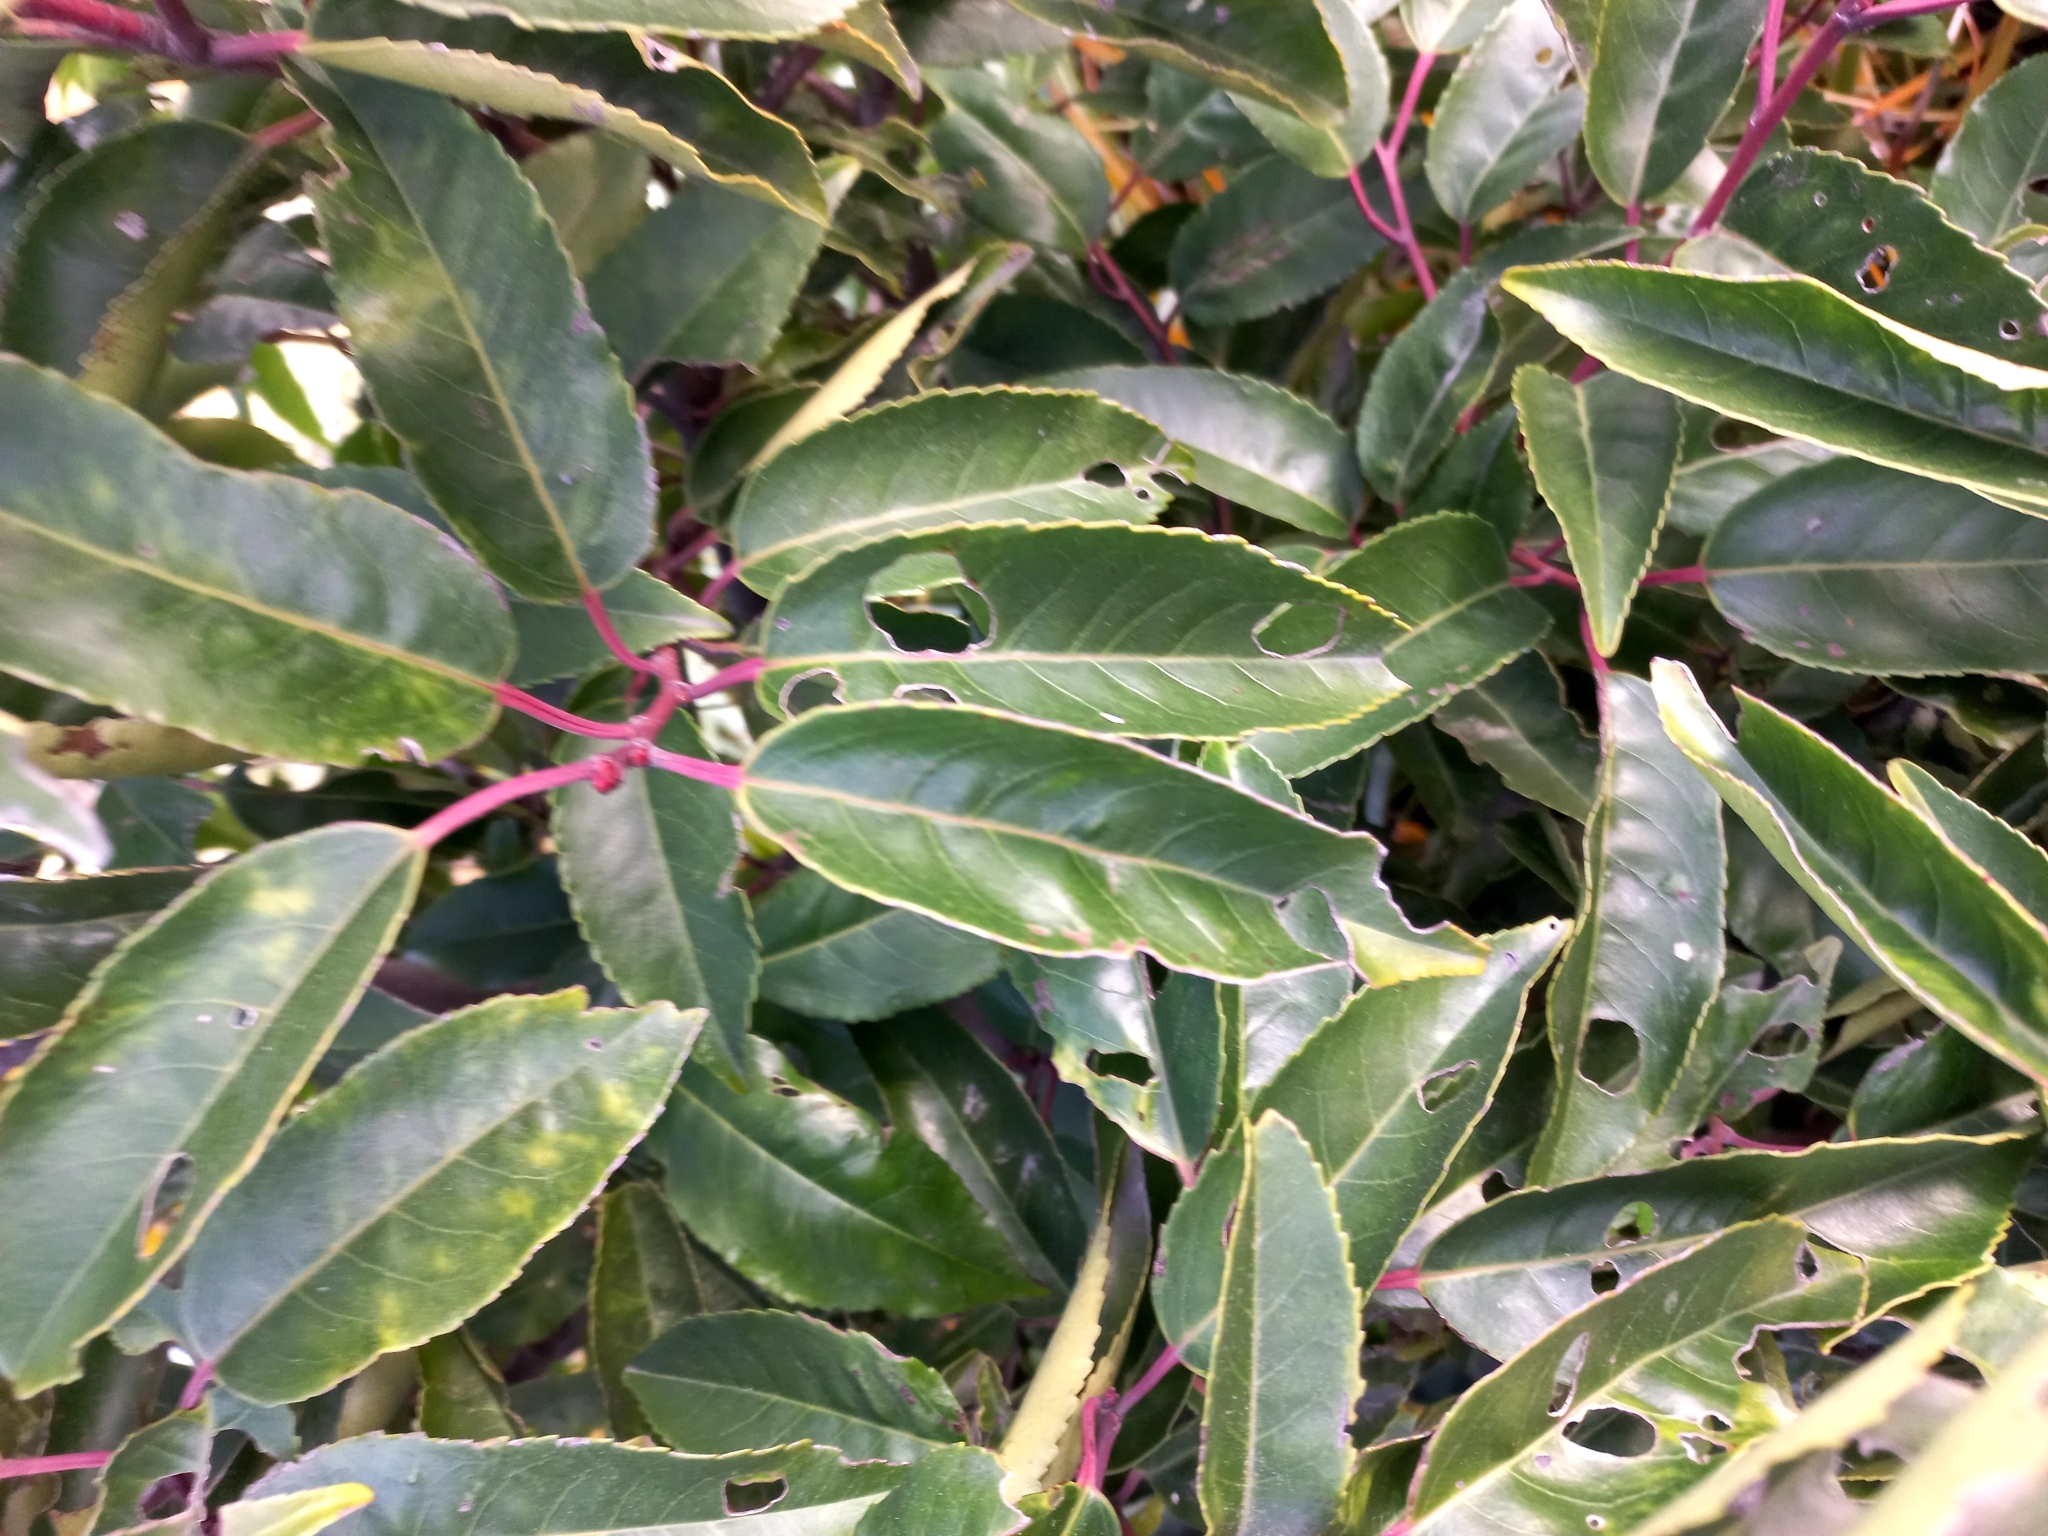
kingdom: Plantae
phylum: Tracheophyta
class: Magnoliopsida
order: Rosales
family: Rosaceae
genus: Prunus
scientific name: Prunus lusitanica
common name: Portugal laurel
